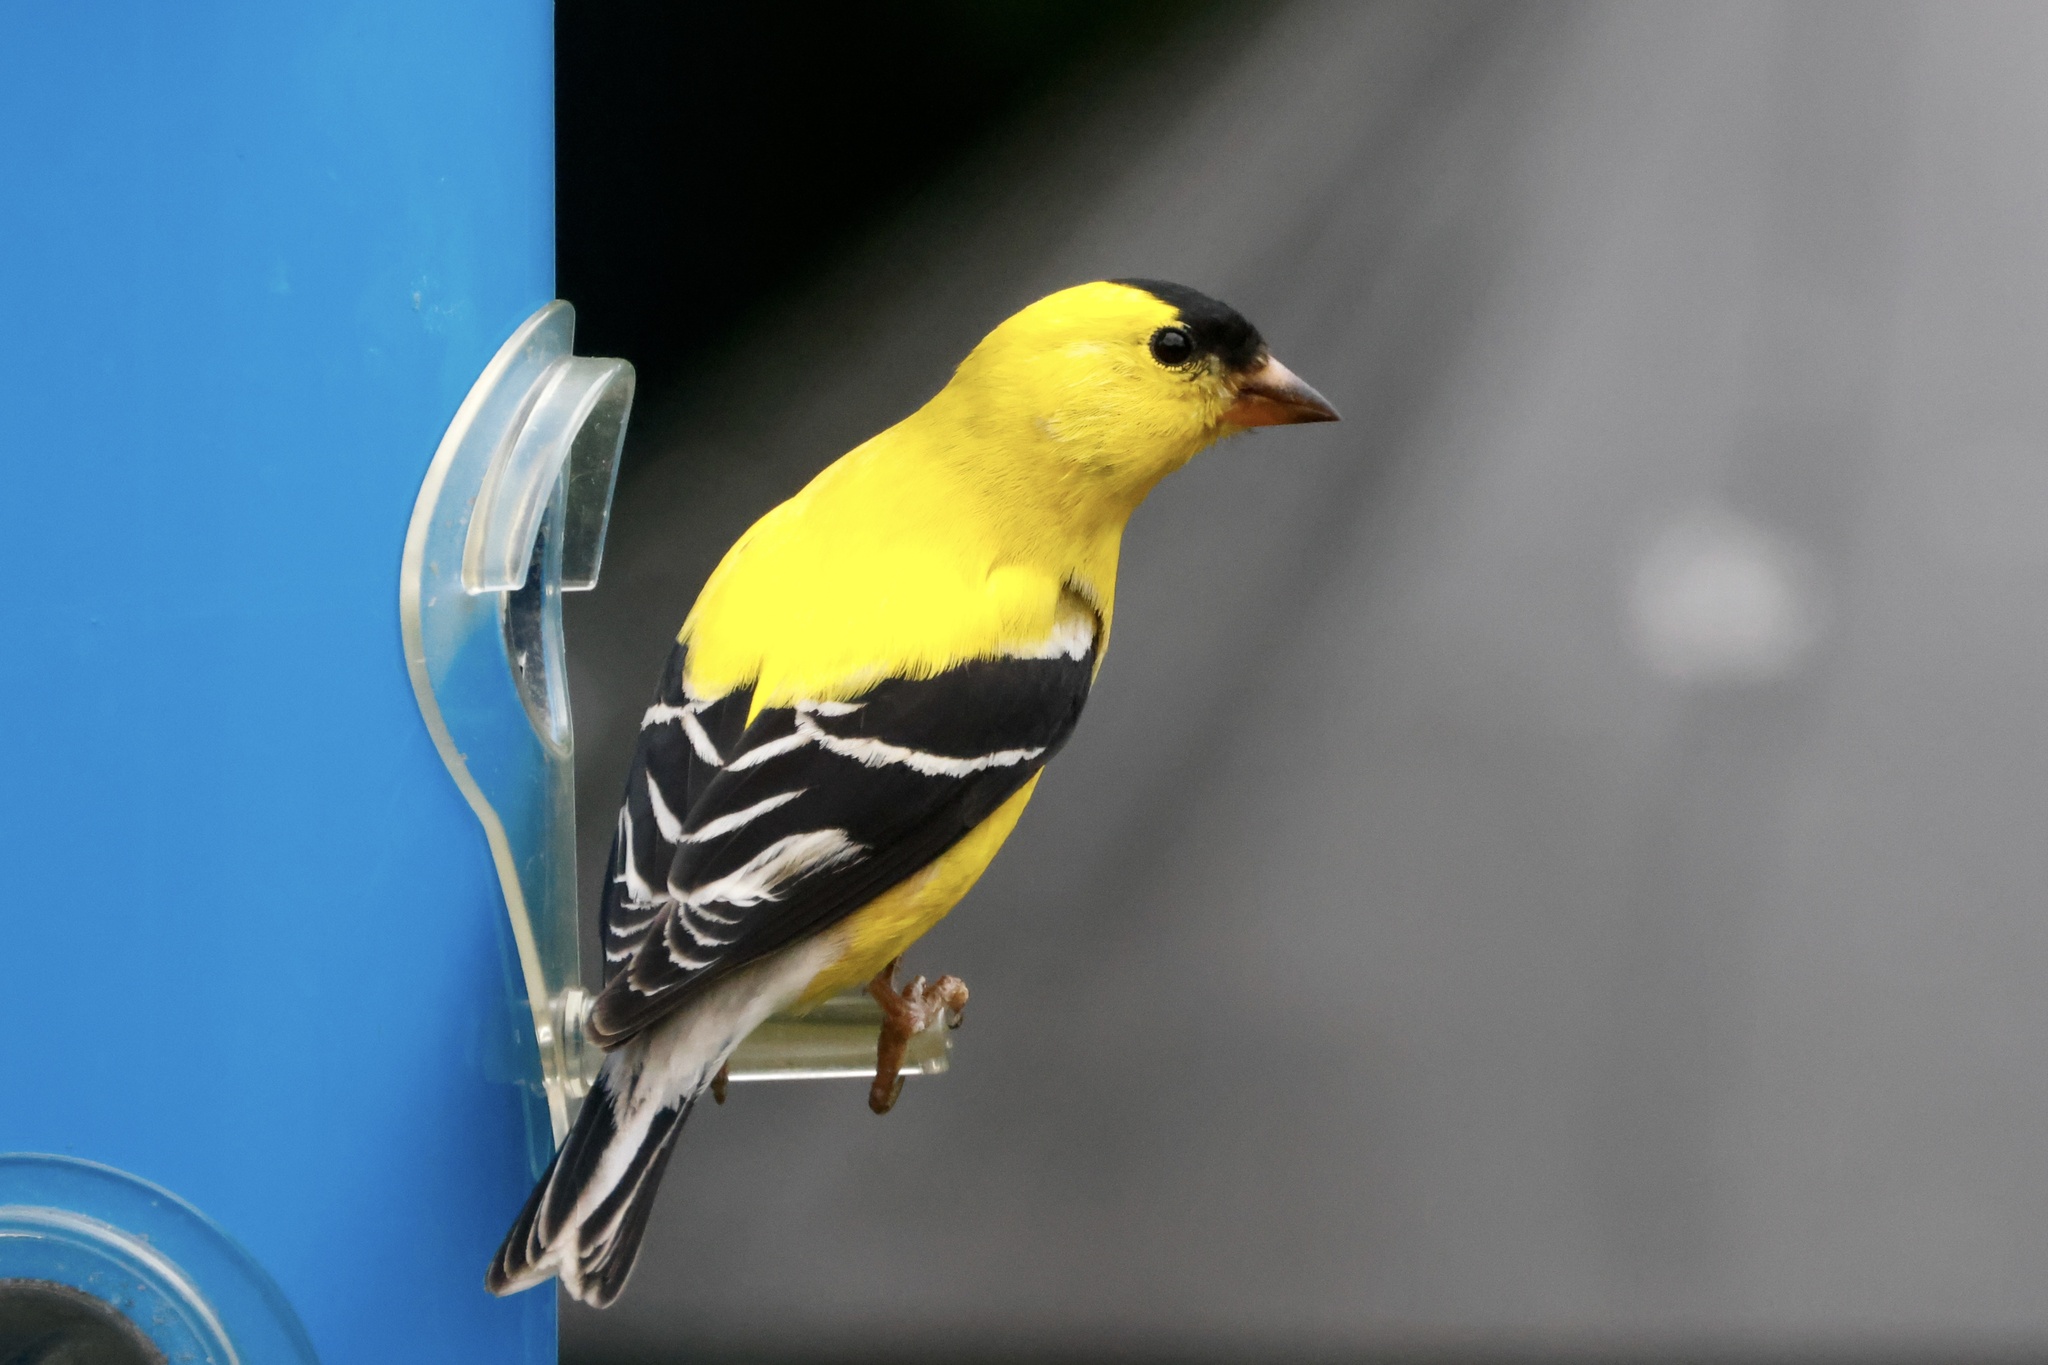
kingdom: Animalia
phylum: Chordata
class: Aves
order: Passeriformes
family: Fringillidae
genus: Spinus
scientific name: Spinus tristis
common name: American goldfinch
